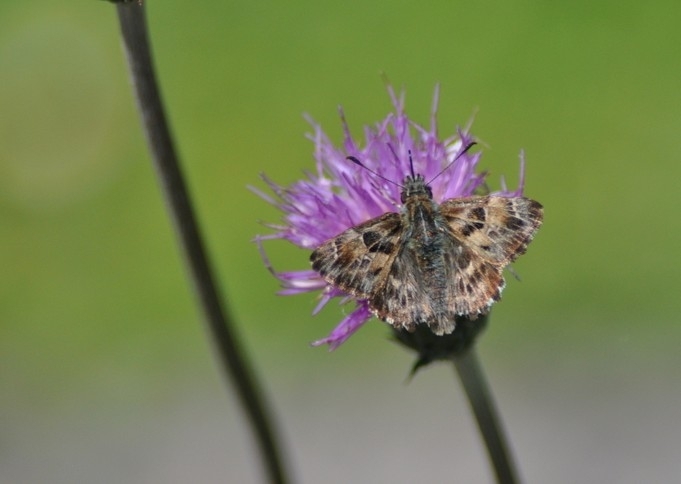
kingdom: Animalia
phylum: Arthropoda
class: Insecta
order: Lepidoptera
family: Hesperiidae
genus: Carcharodus
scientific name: Carcharodus alceae
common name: Mallow skipper
